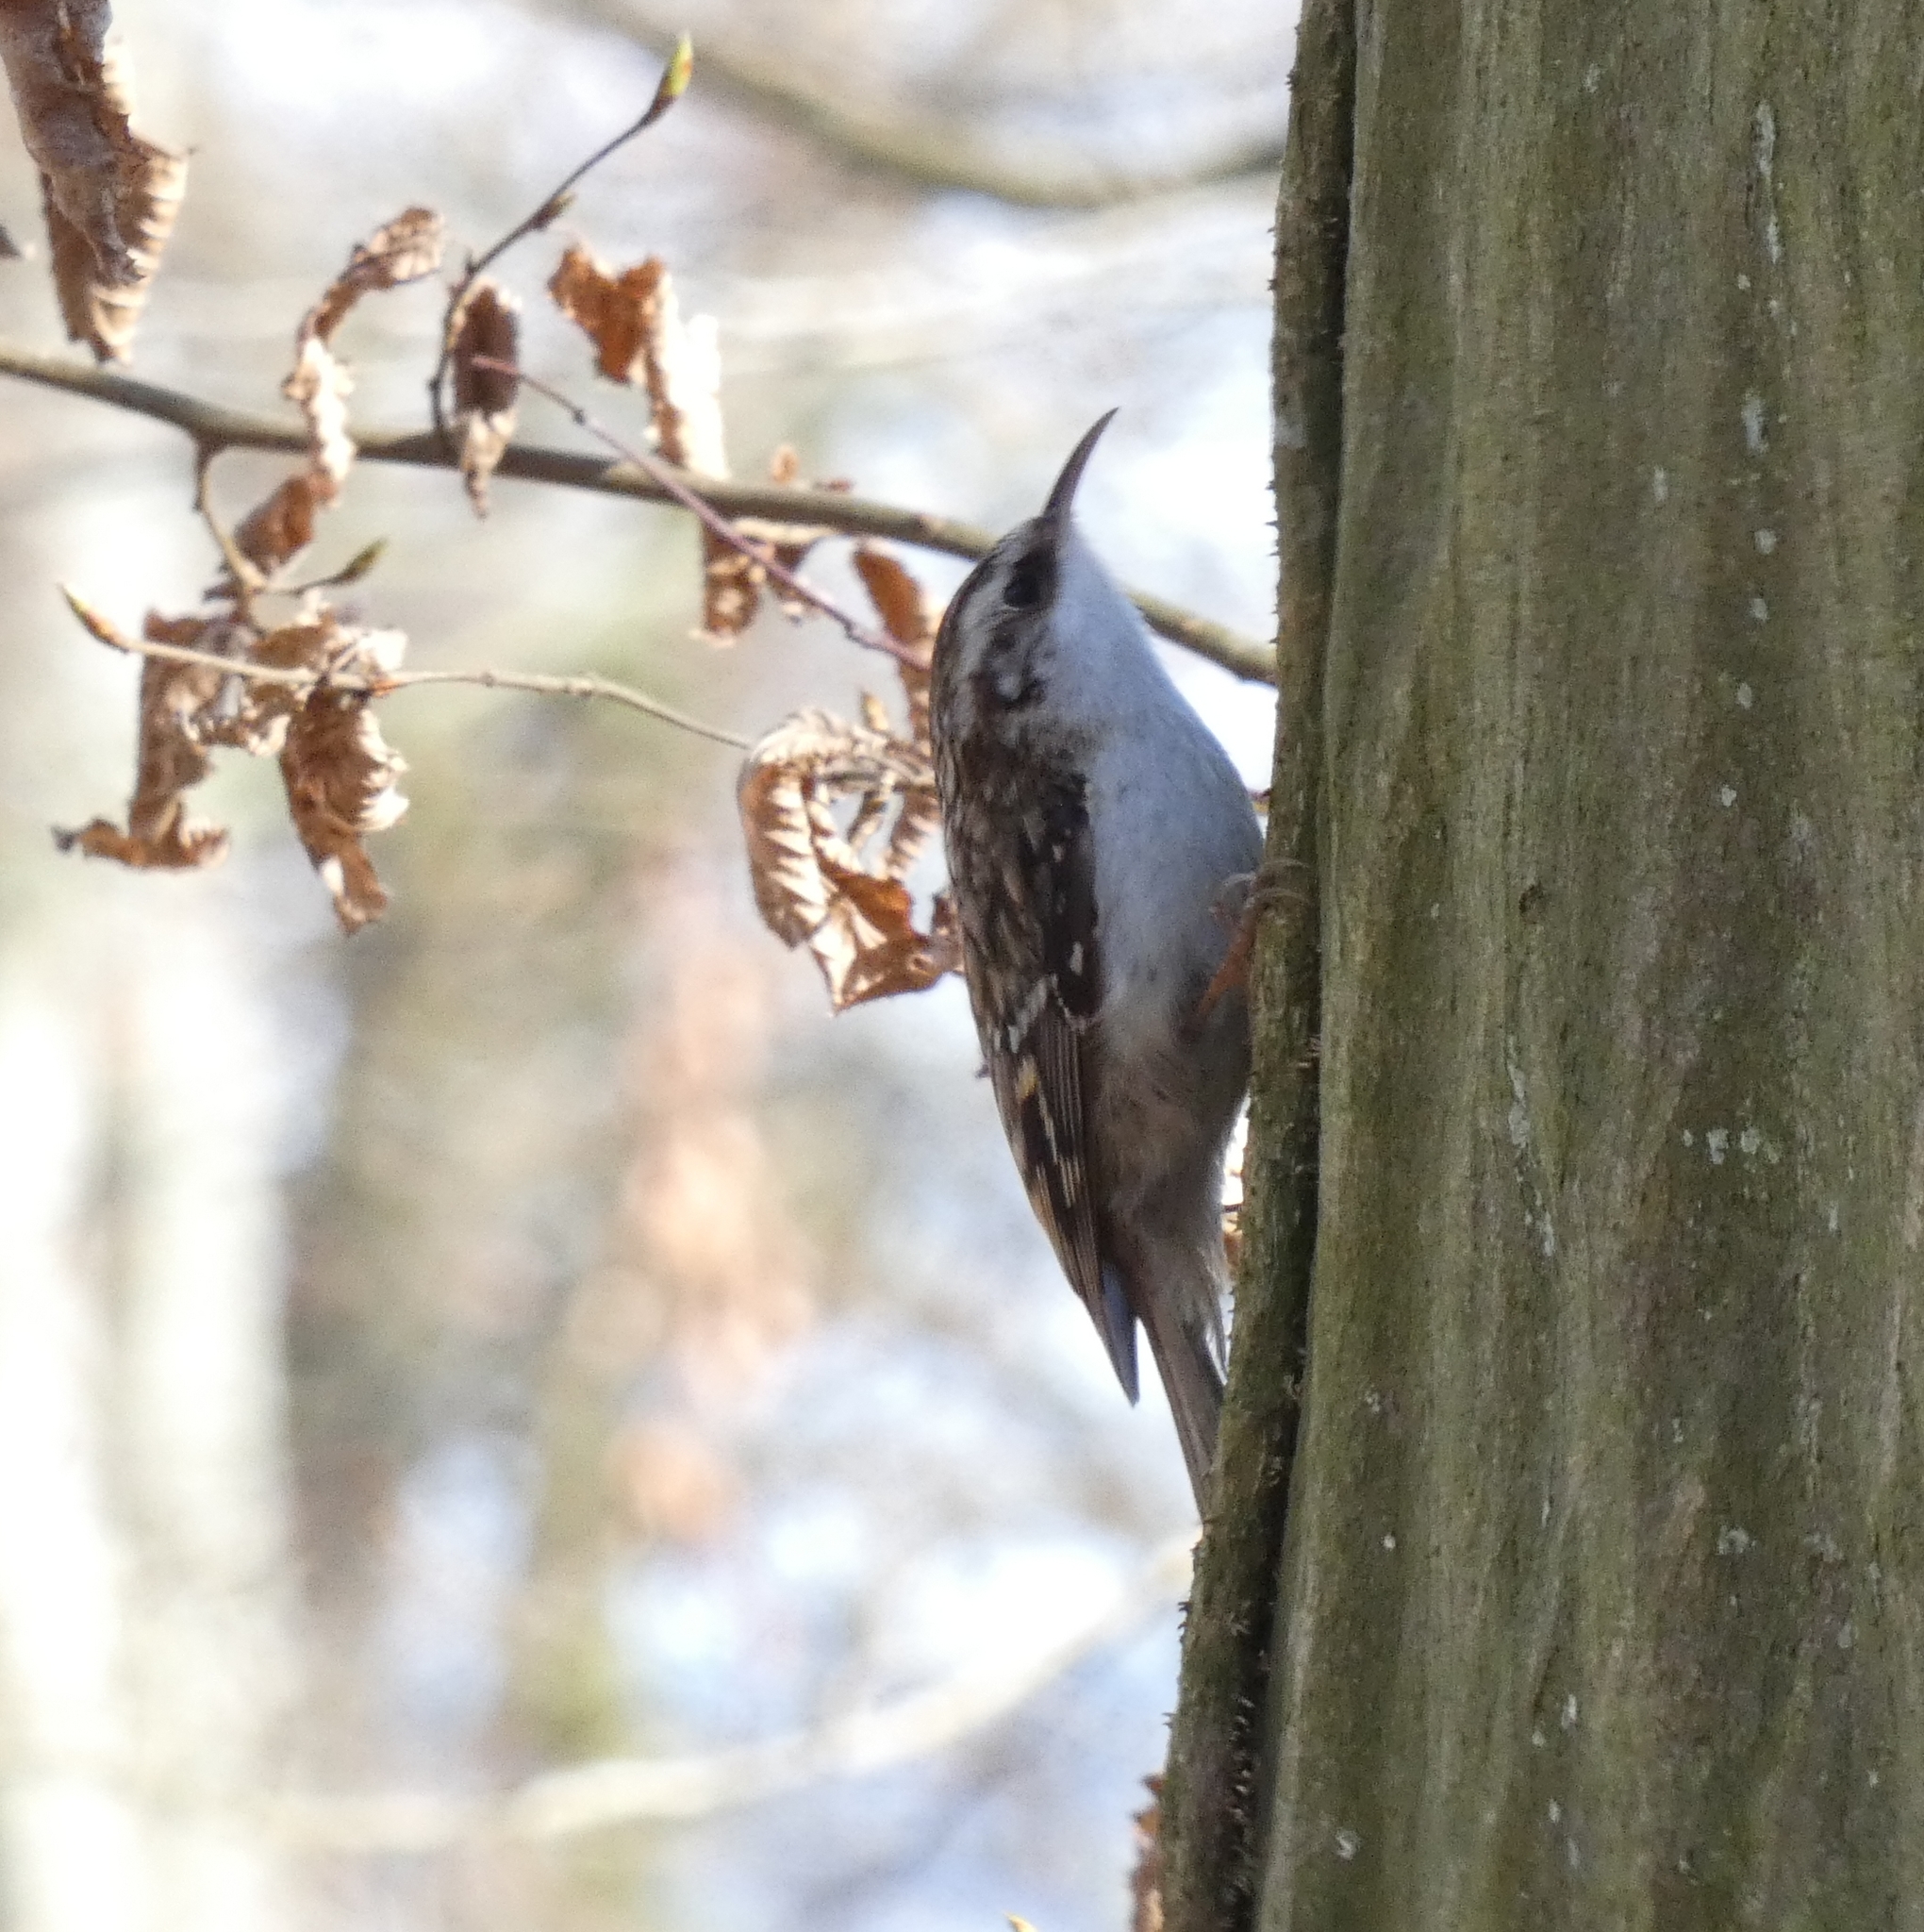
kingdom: Animalia
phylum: Chordata
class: Aves
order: Passeriformes
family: Certhiidae
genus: Certhia
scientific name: Certhia brachydactyla
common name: Short-toed treecreeper
